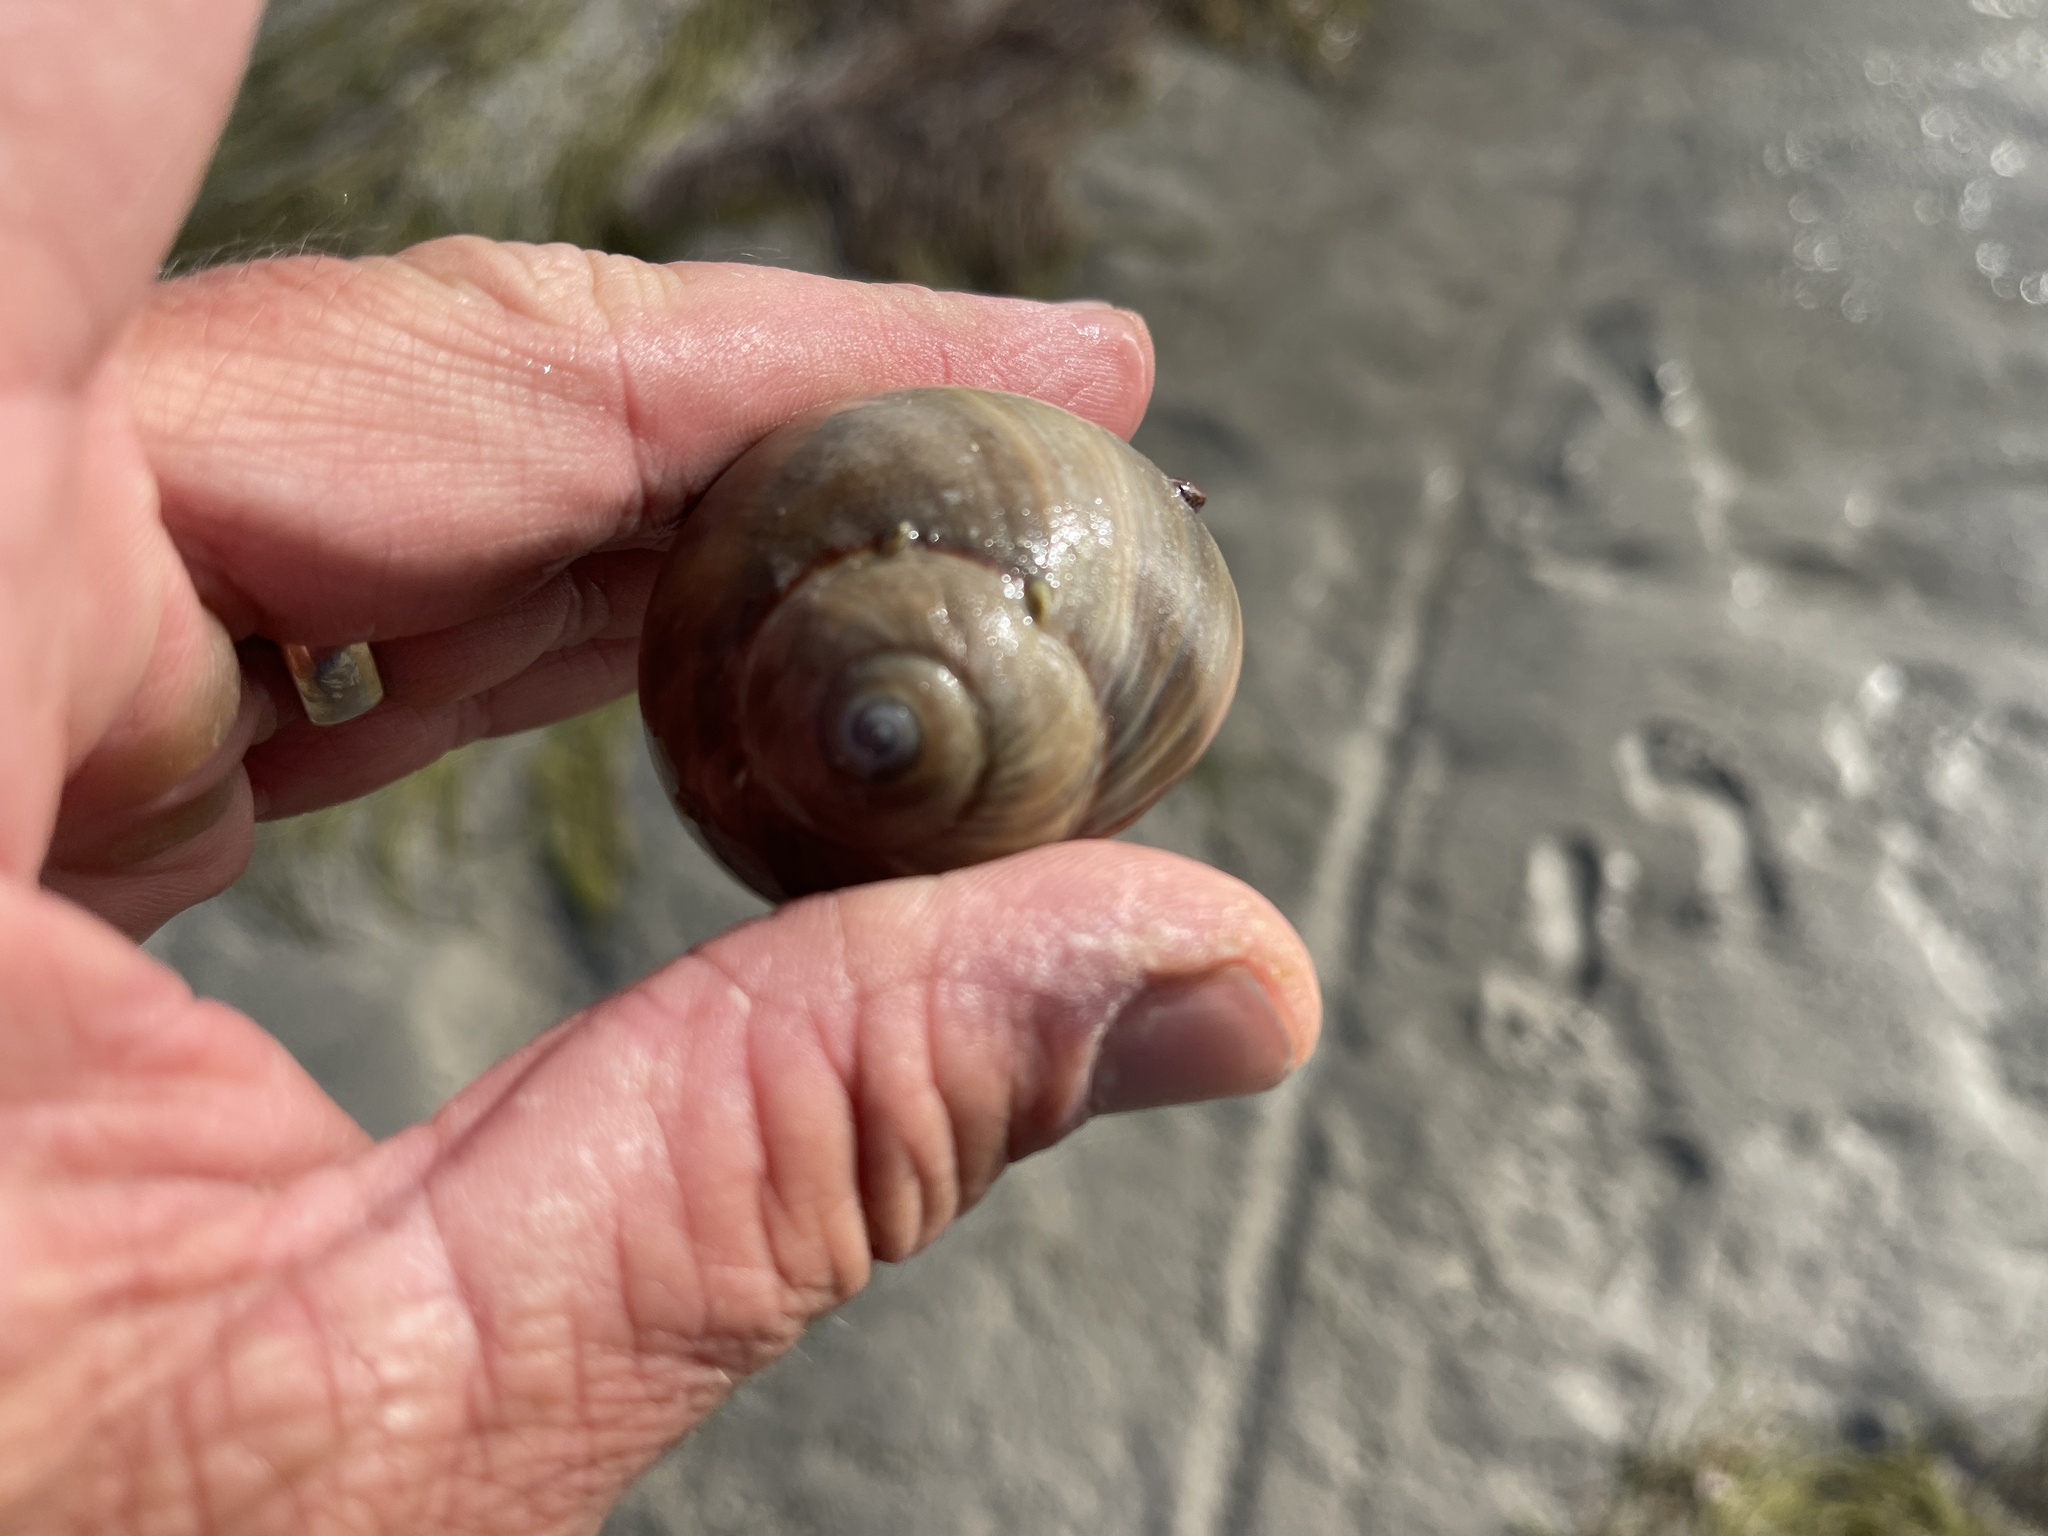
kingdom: Animalia
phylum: Mollusca
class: Gastropoda
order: Littorinimorpha
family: Naticidae
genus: Neverita
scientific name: Neverita delessertiana
